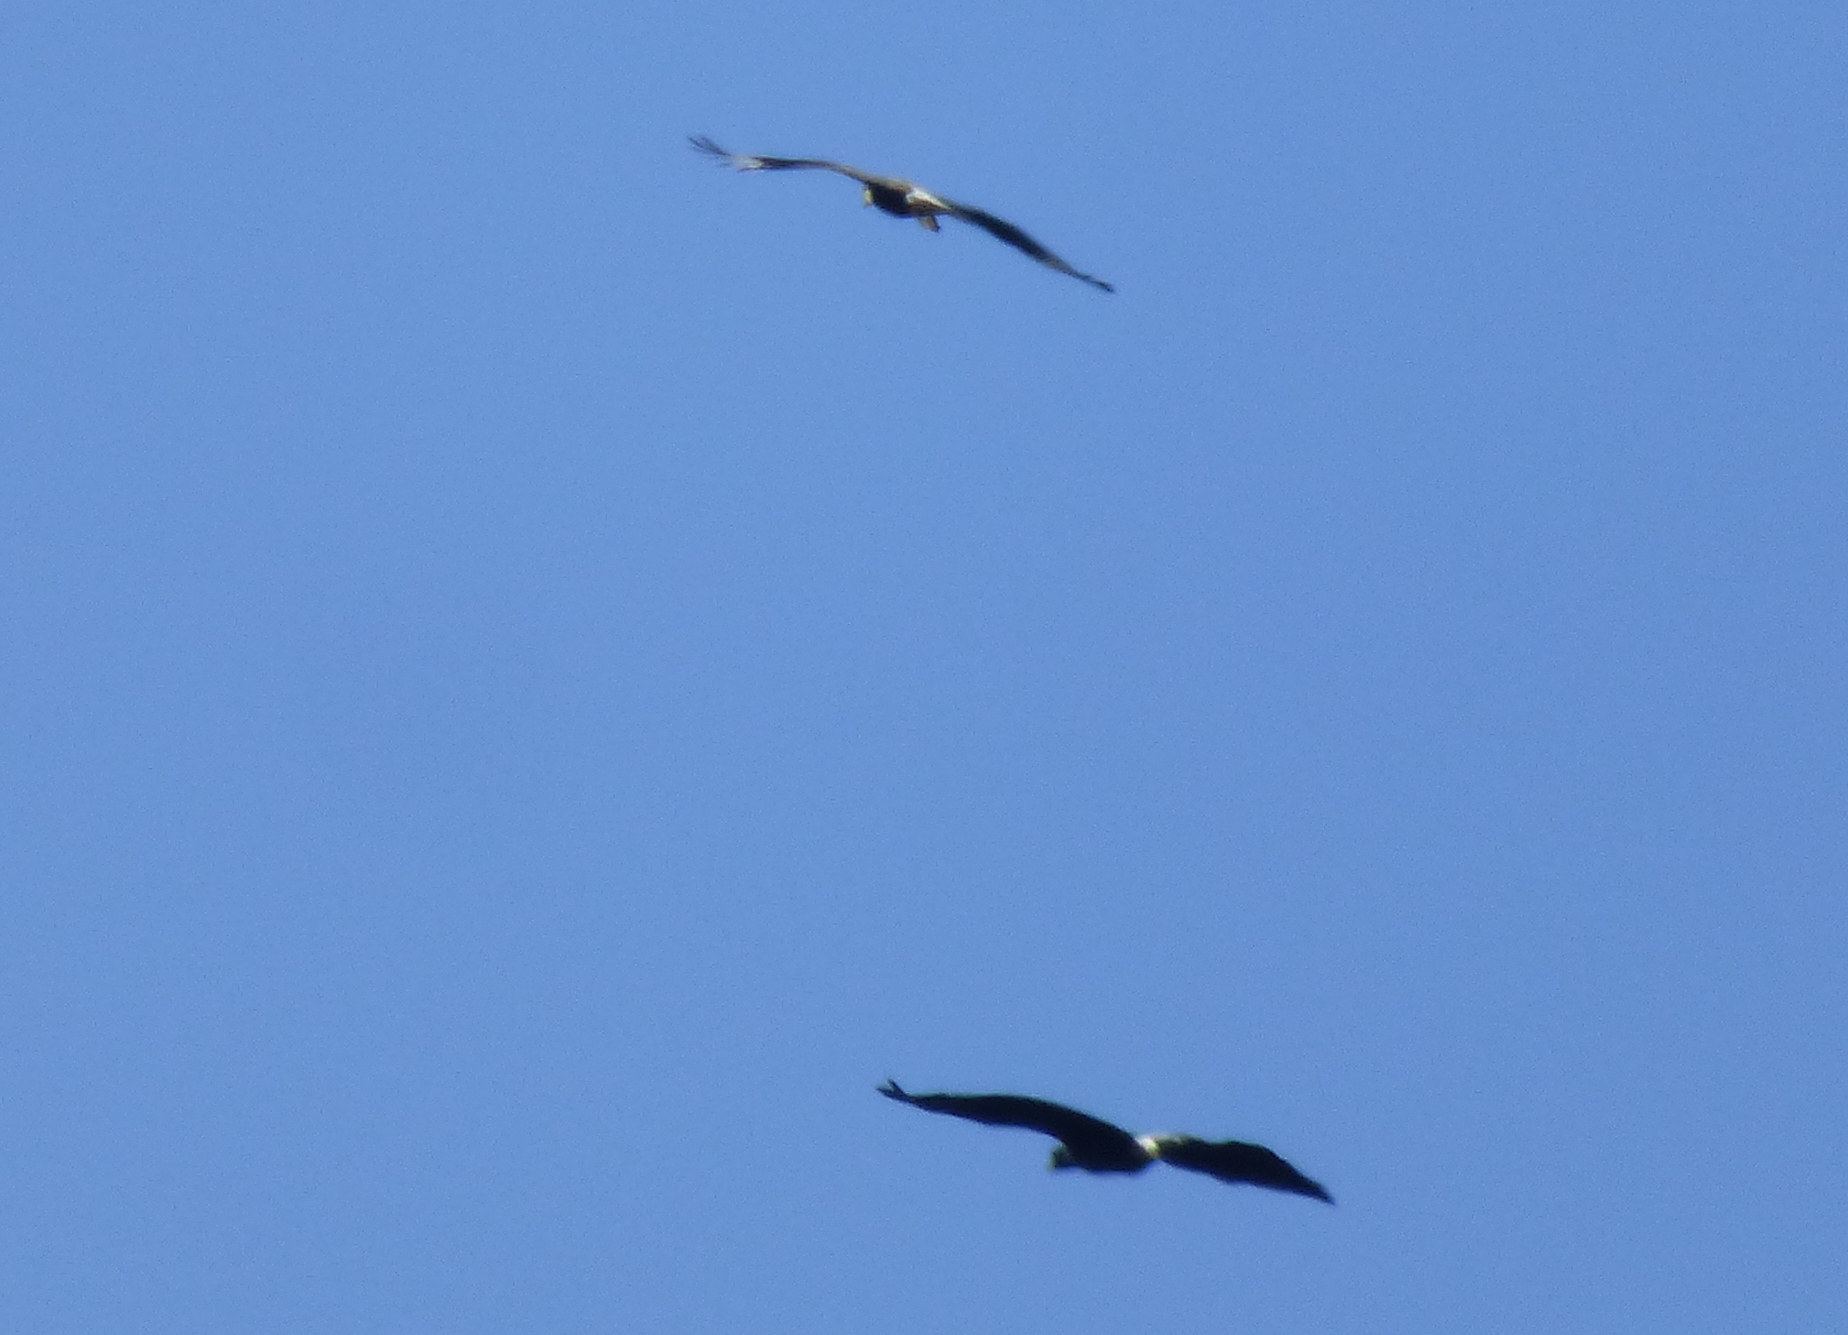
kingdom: Animalia
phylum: Chordata
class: Aves
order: Accipitriformes
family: Accipitridae
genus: Buteogallus
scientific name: Buteogallus urubitinga
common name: Great black hawk
